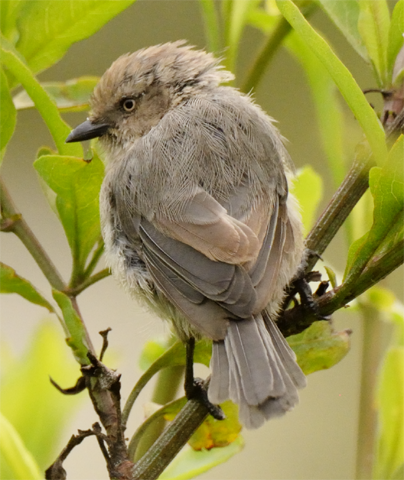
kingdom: Animalia
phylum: Chordata
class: Aves
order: Passeriformes
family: Aegithalidae
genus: Psaltriparus
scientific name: Psaltriparus minimus
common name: American bushtit
